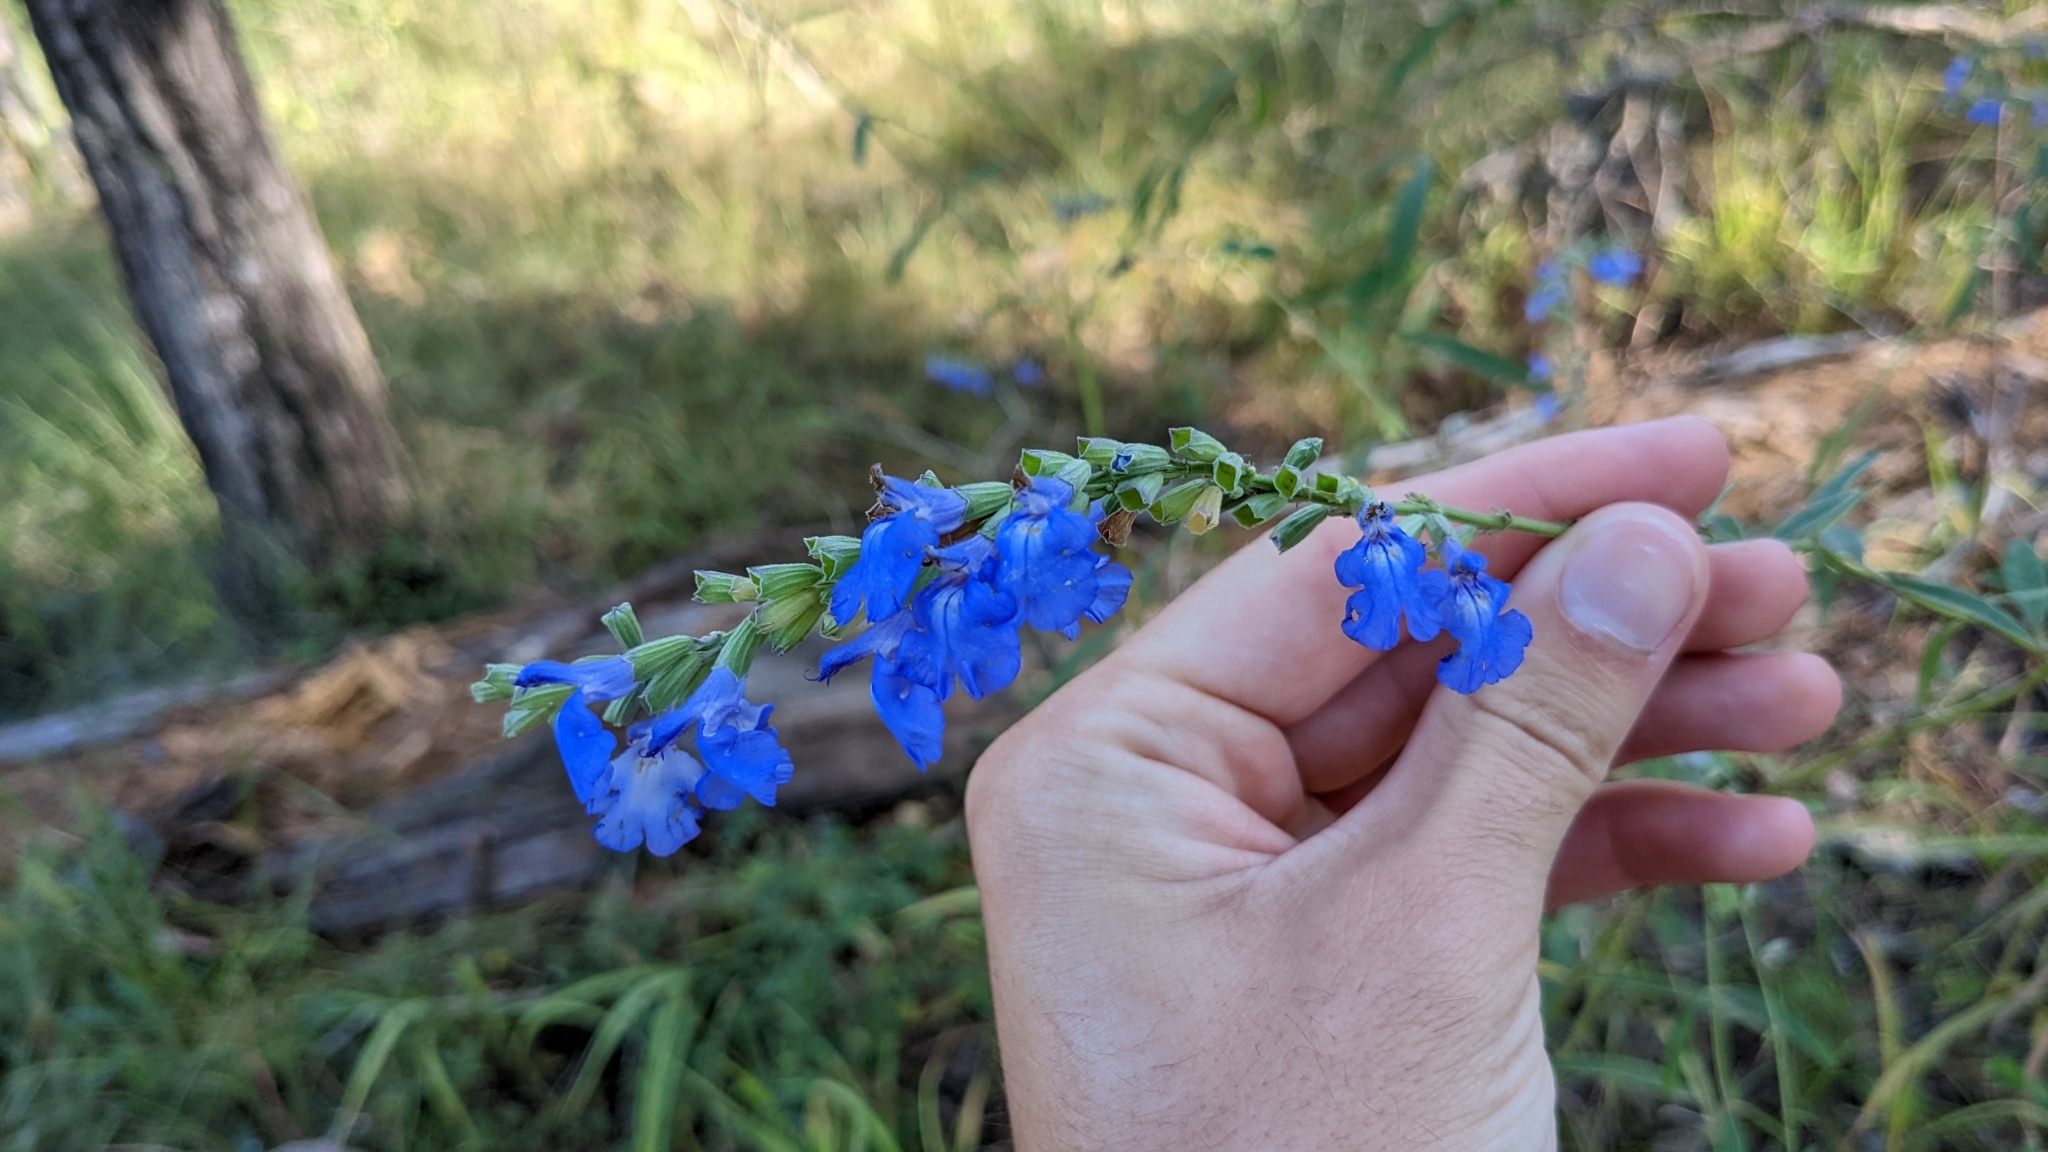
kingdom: Plantae
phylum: Tracheophyta
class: Magnoliopsida
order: Lamiales
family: Lamiaceae
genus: Salvia
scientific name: Salvia azurea
